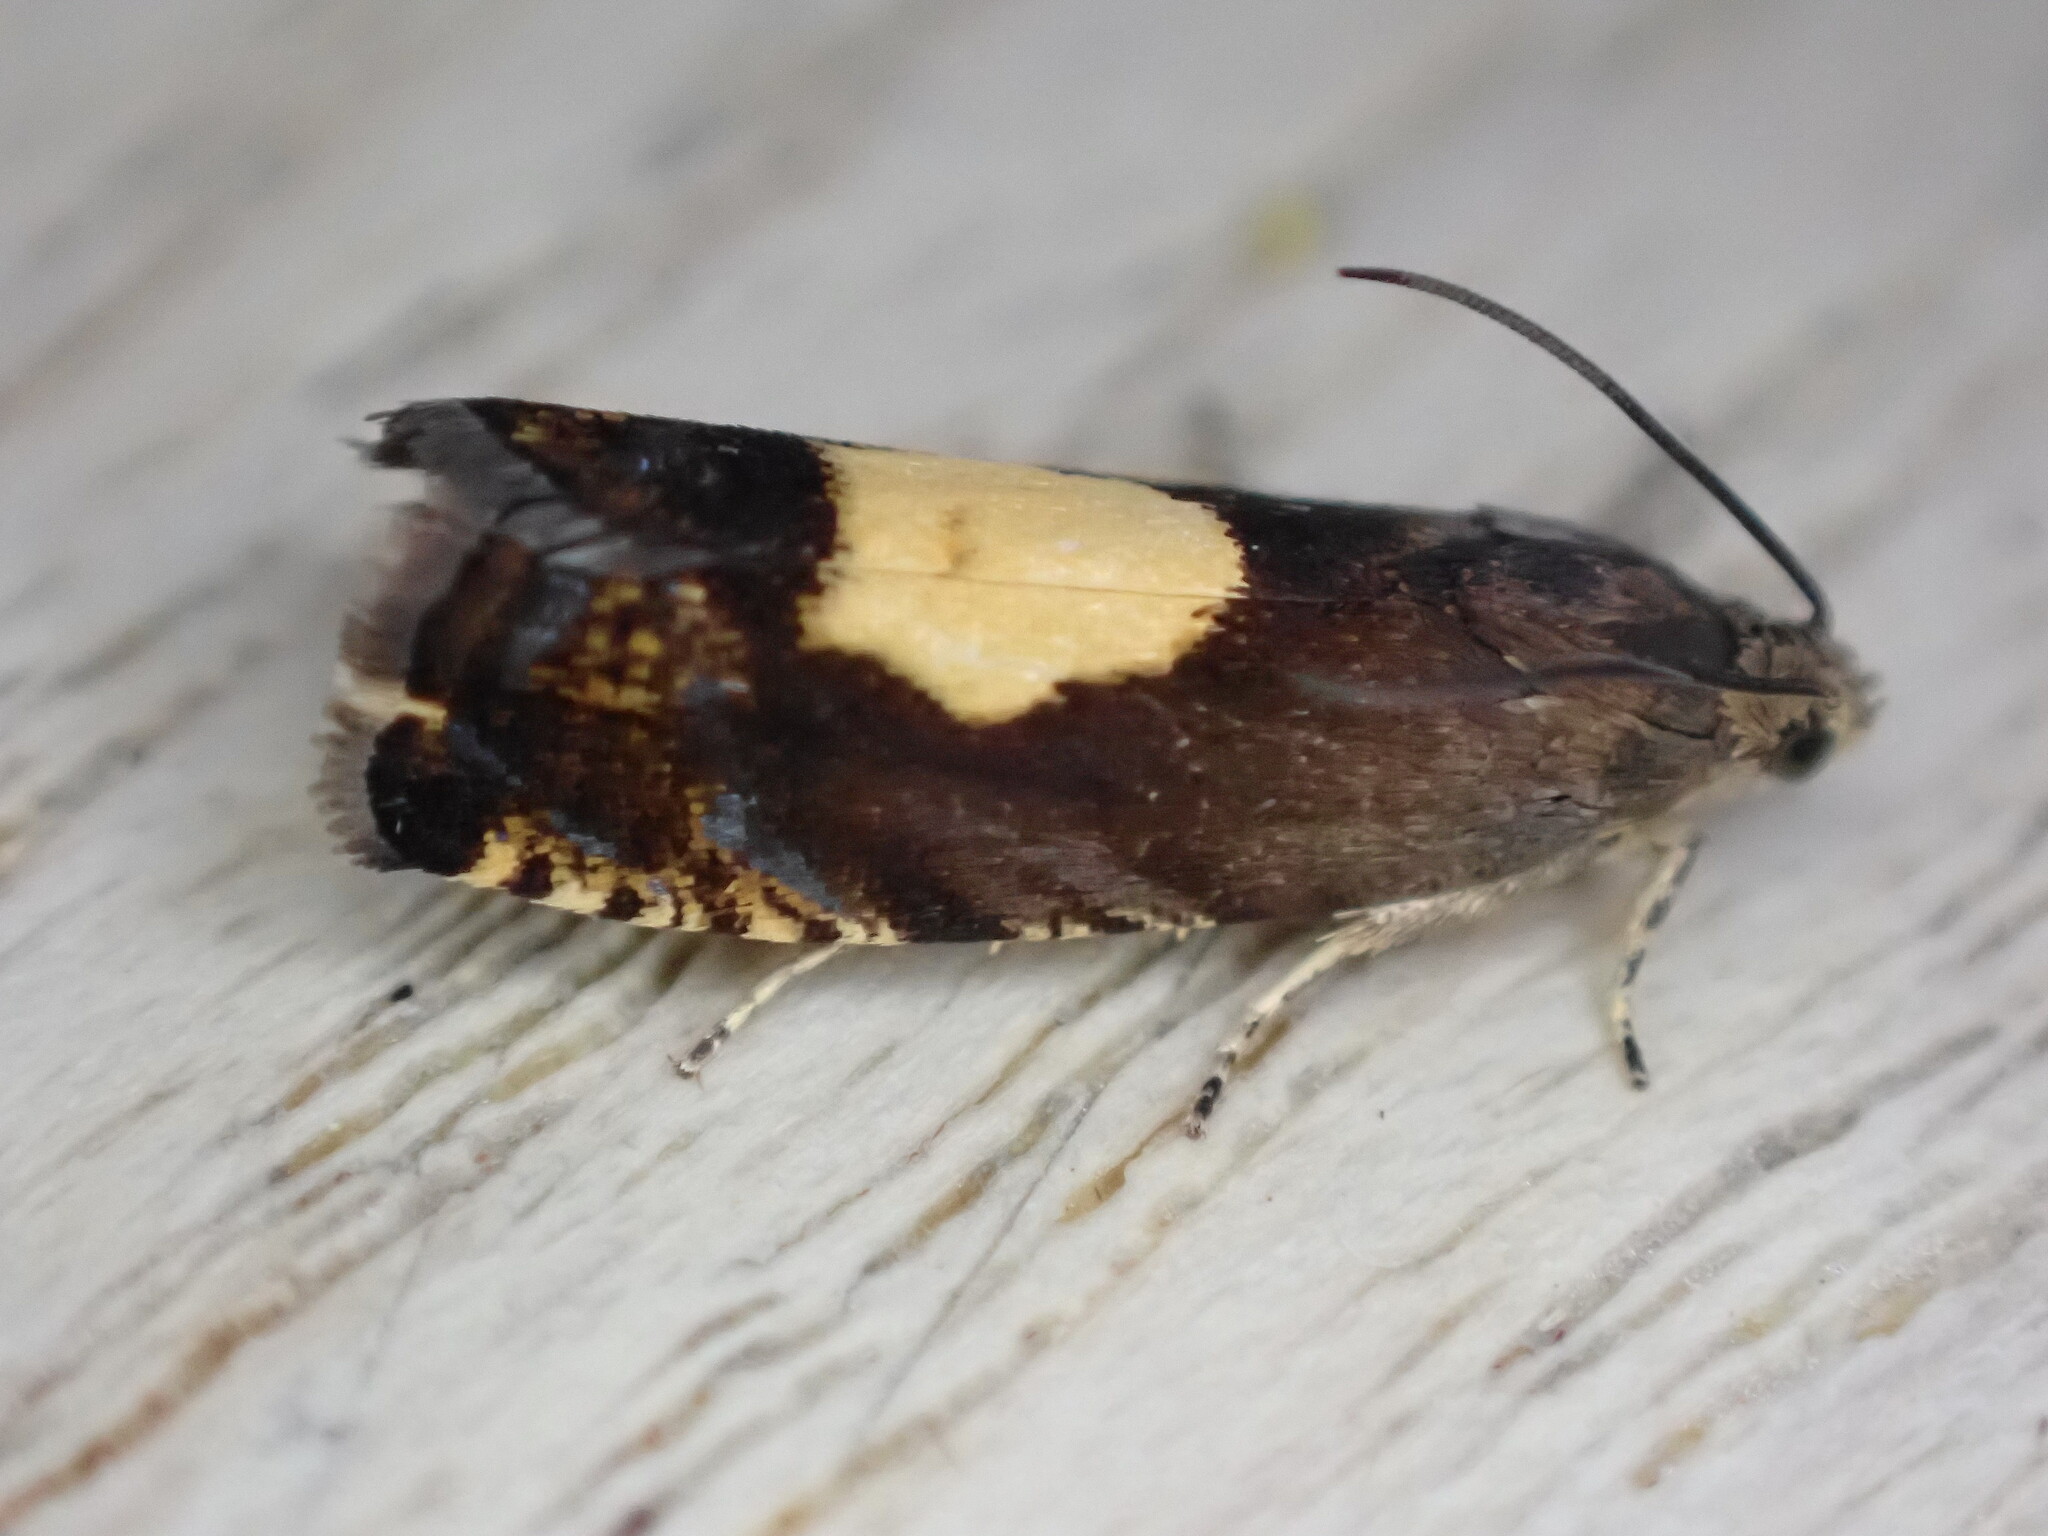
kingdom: Animalia
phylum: Arthropoda
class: Insecta
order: Lepidoptera
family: Tortricidae
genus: Pammene
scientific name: Pammene regiana
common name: Regal piercer
